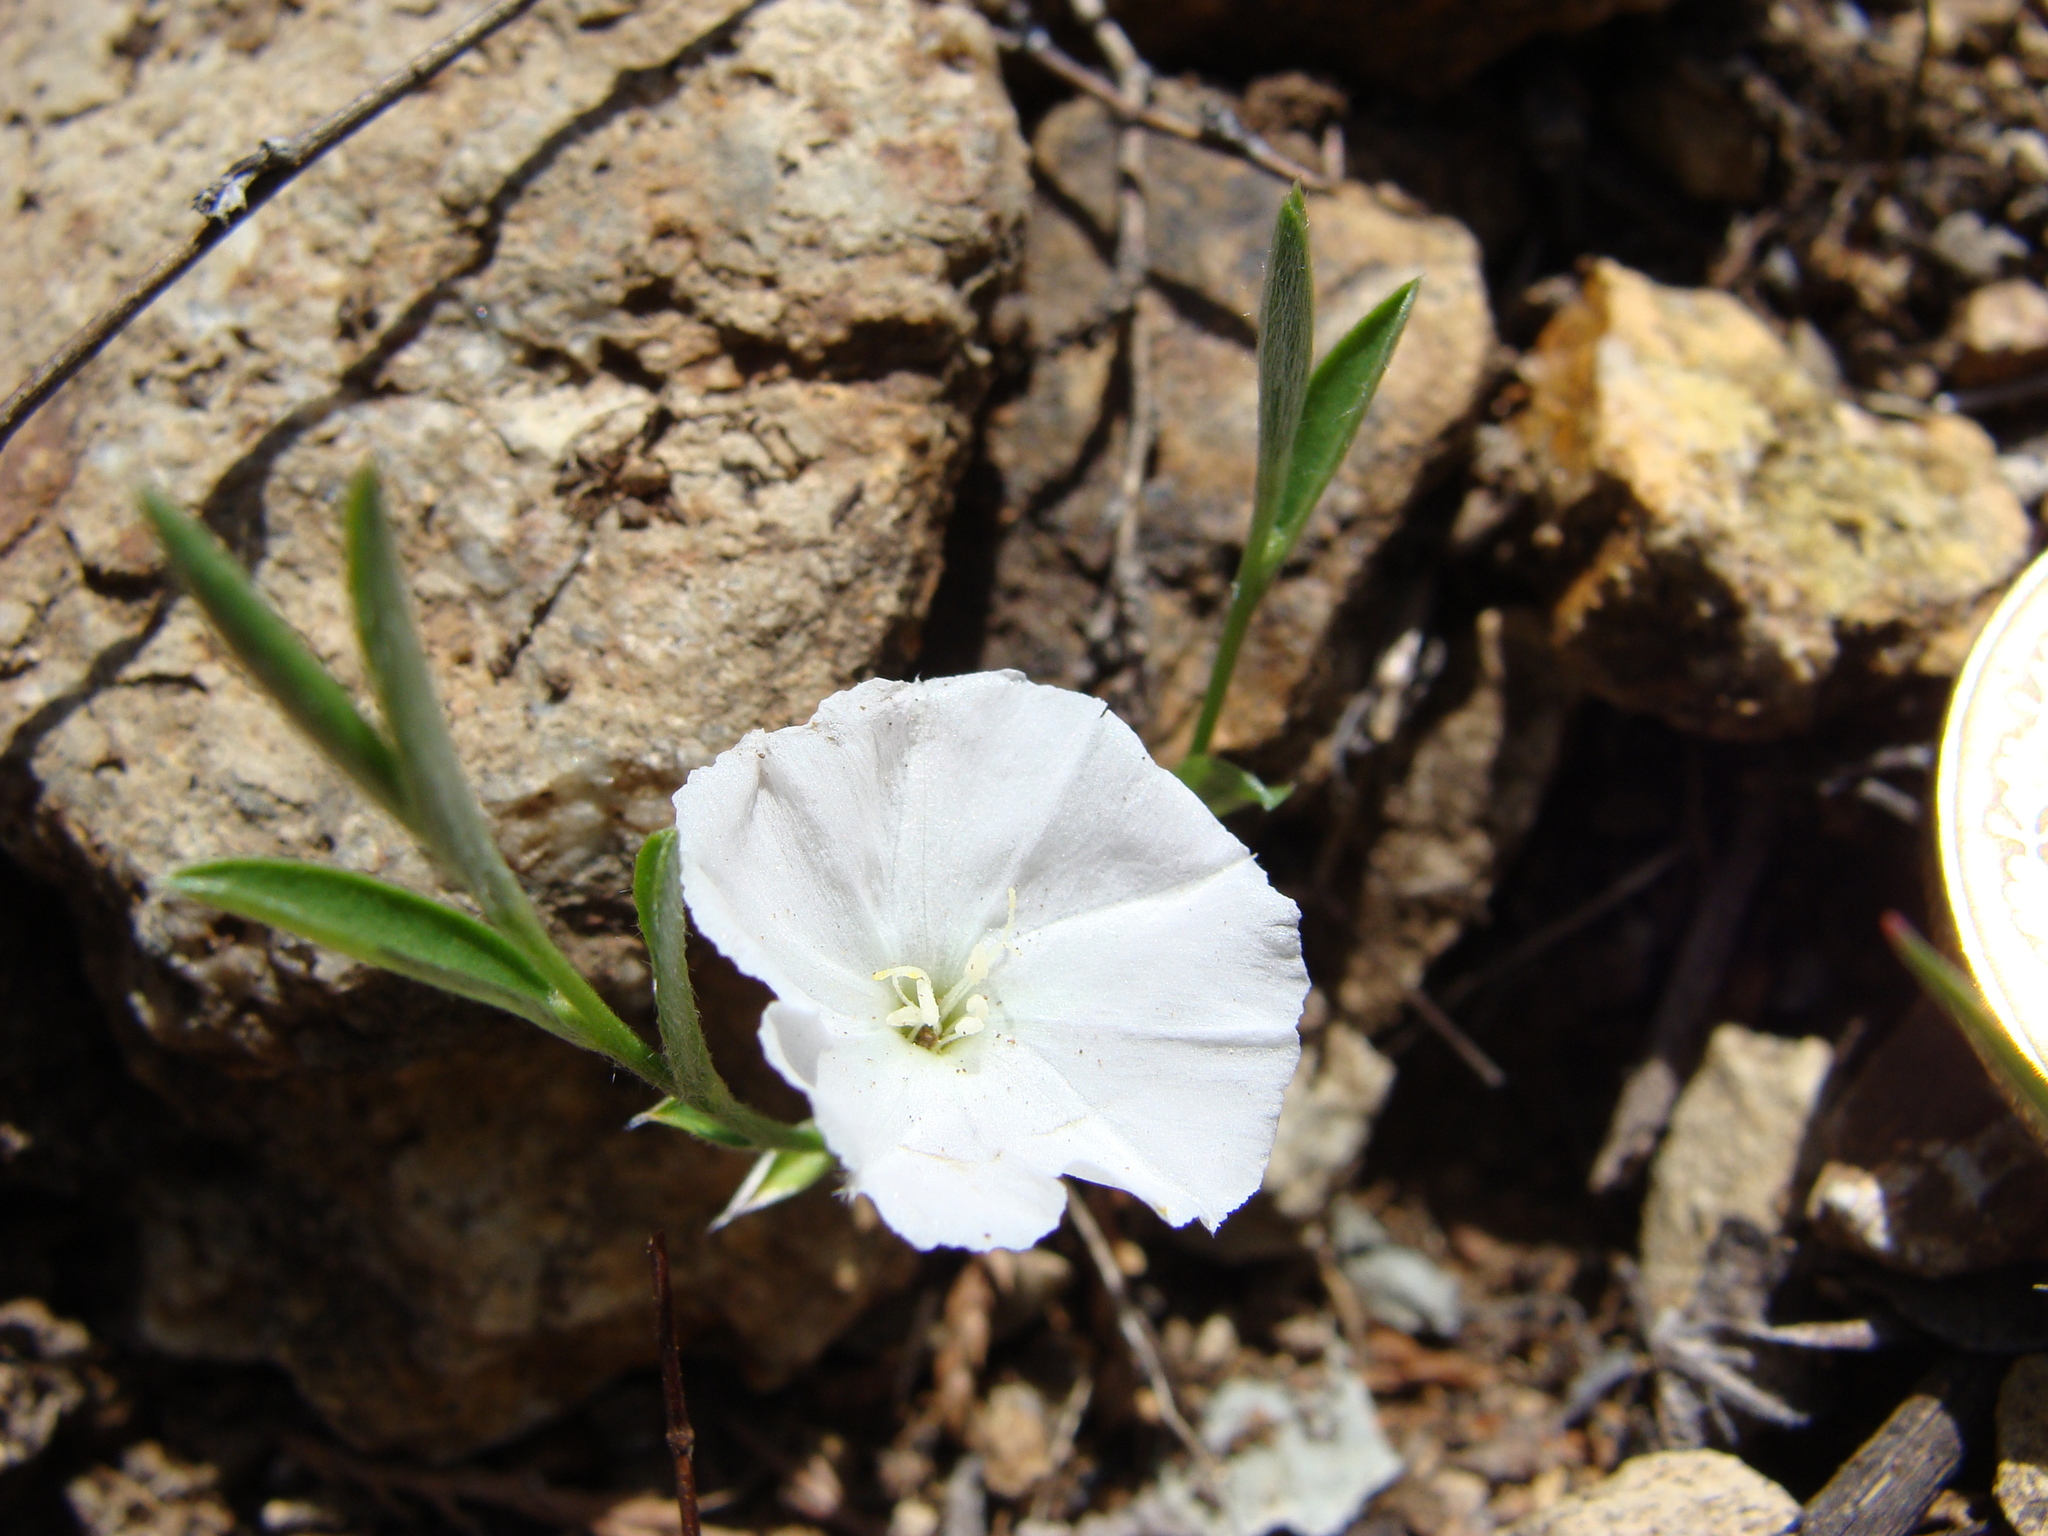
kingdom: Plantae
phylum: Tracheophyta
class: Magnoliopsida
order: Solanales
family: Convolvulaceae
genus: Evolvulus
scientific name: Evolvulus sericeus
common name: Blue dots
